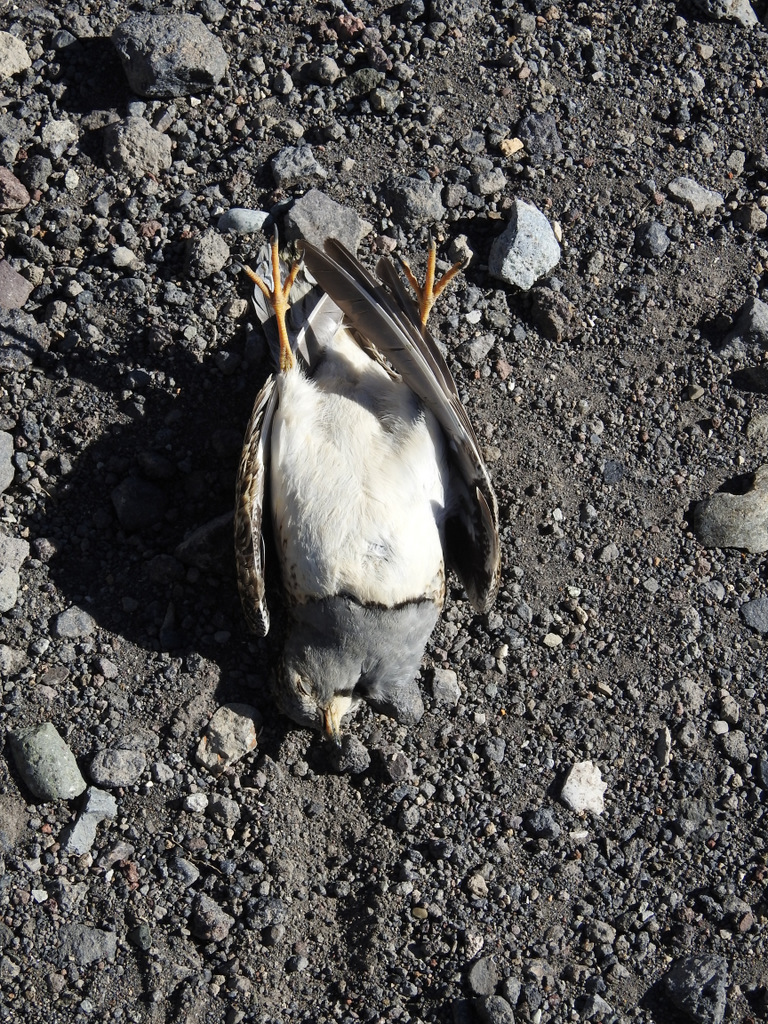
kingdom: Animalia
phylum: Chordata
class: Aves
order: Charadriiformes
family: Thinocoridae
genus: Thinocorus
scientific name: Thinocorus orbignyianus
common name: Grey-breasted seedsnipe
